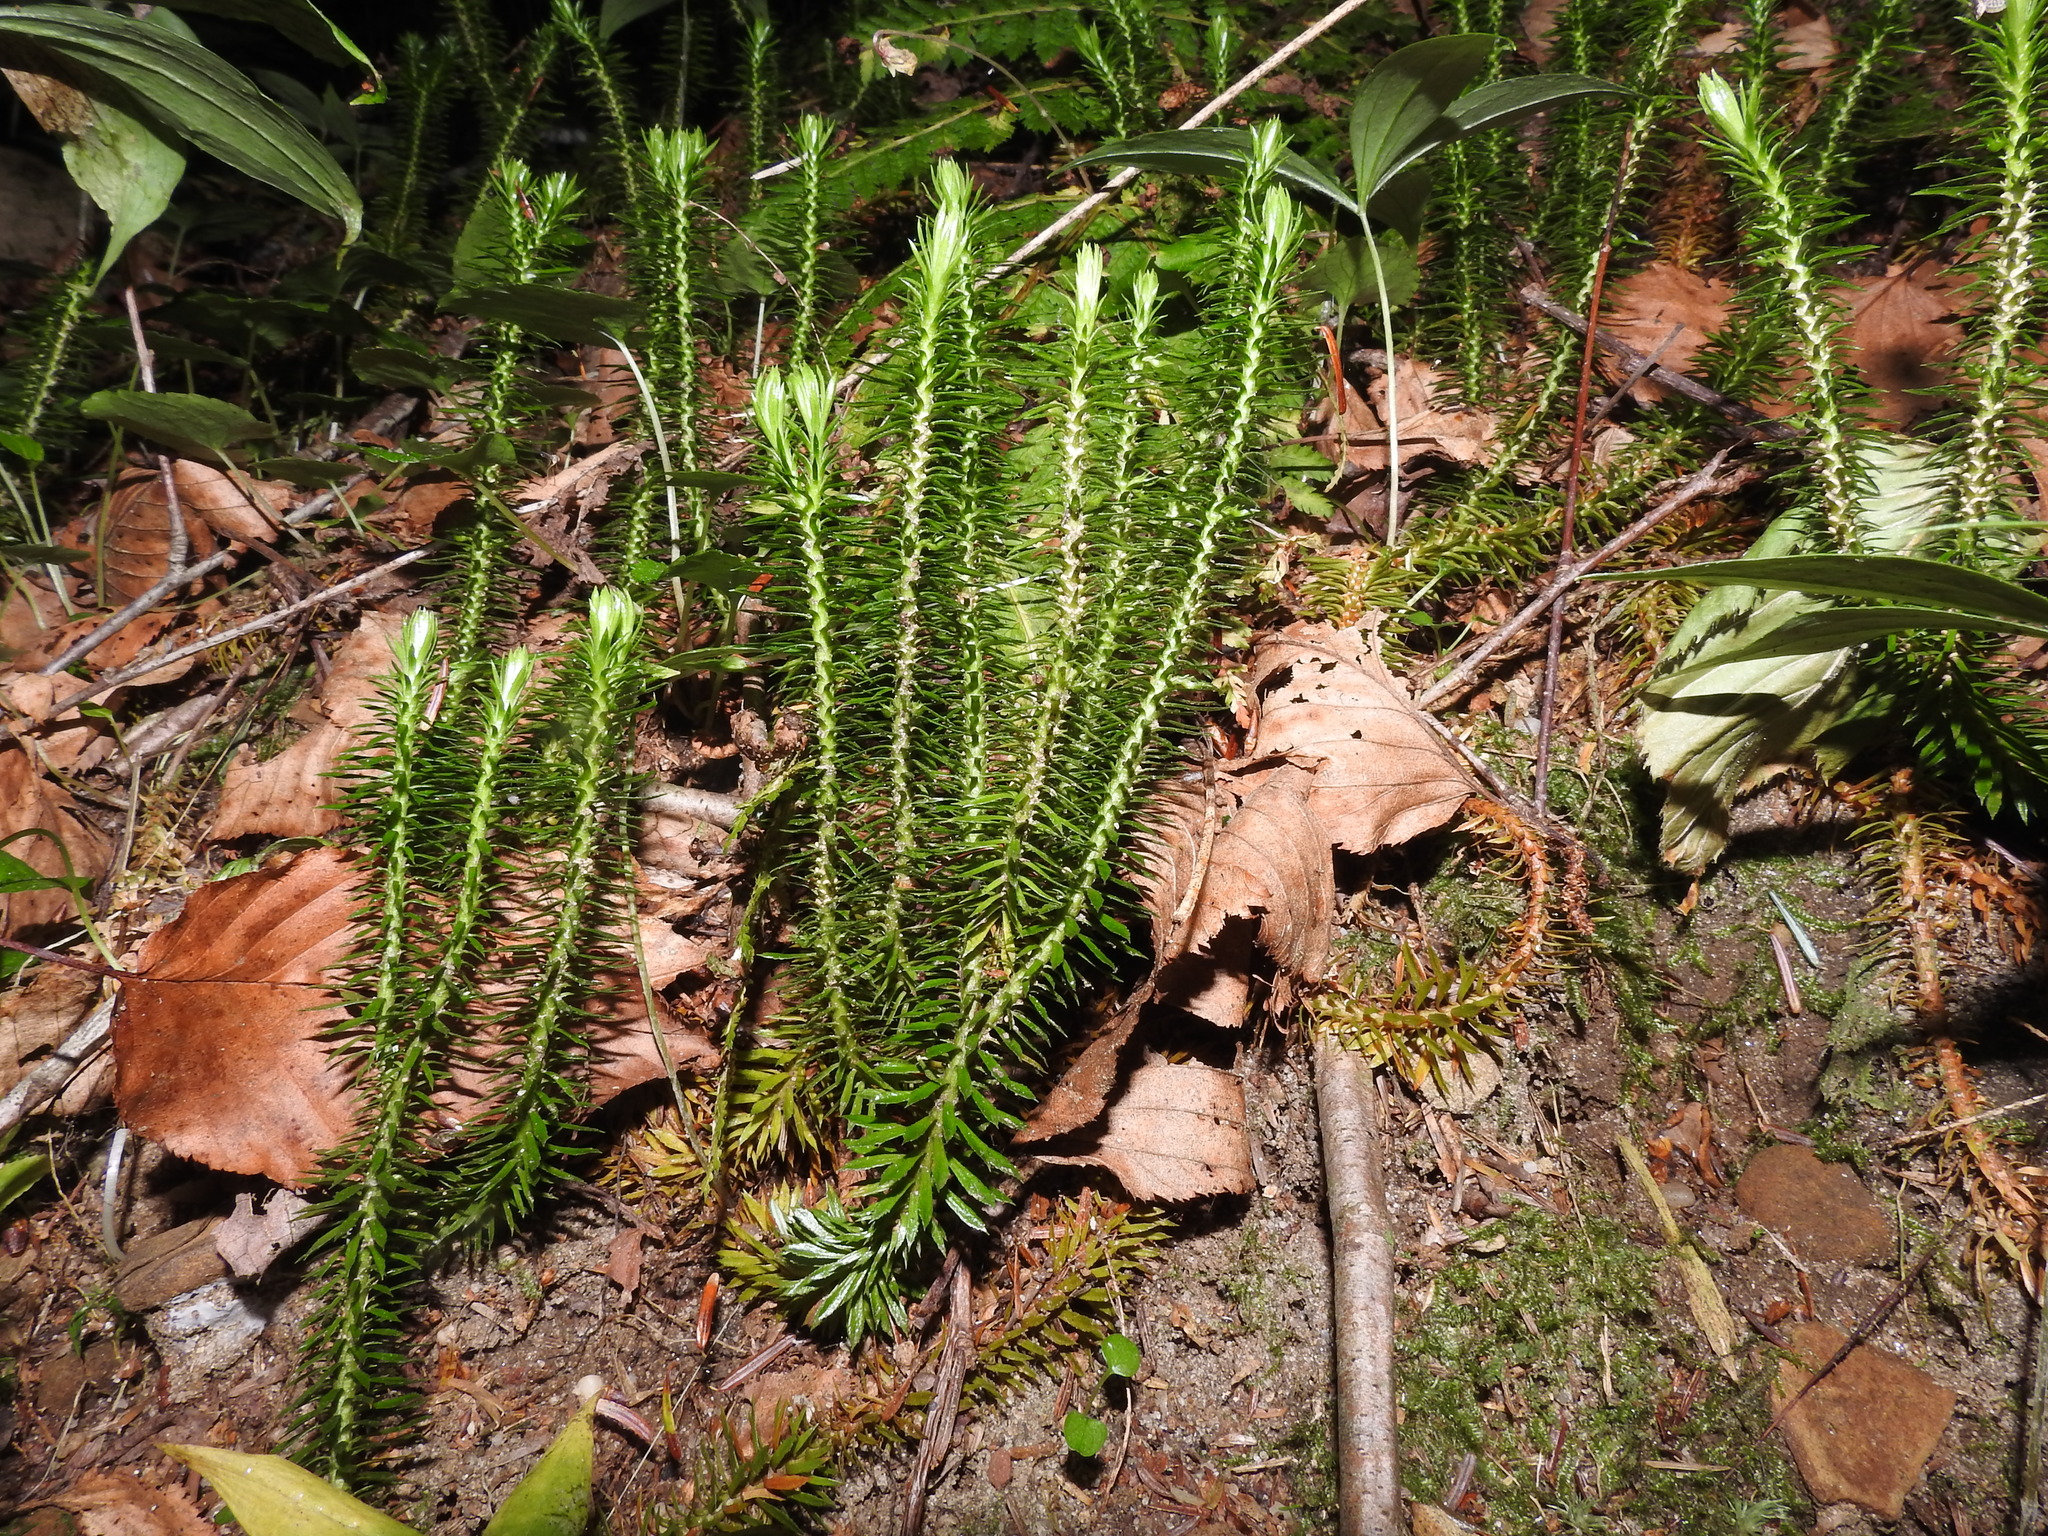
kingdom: Plantae
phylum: Tracheophyta
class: Lycopodiopsida
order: Lycopodiales
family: Lycopodiaceae
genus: Huperzia
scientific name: Huperzia lucidula
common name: Shining clubmoss
